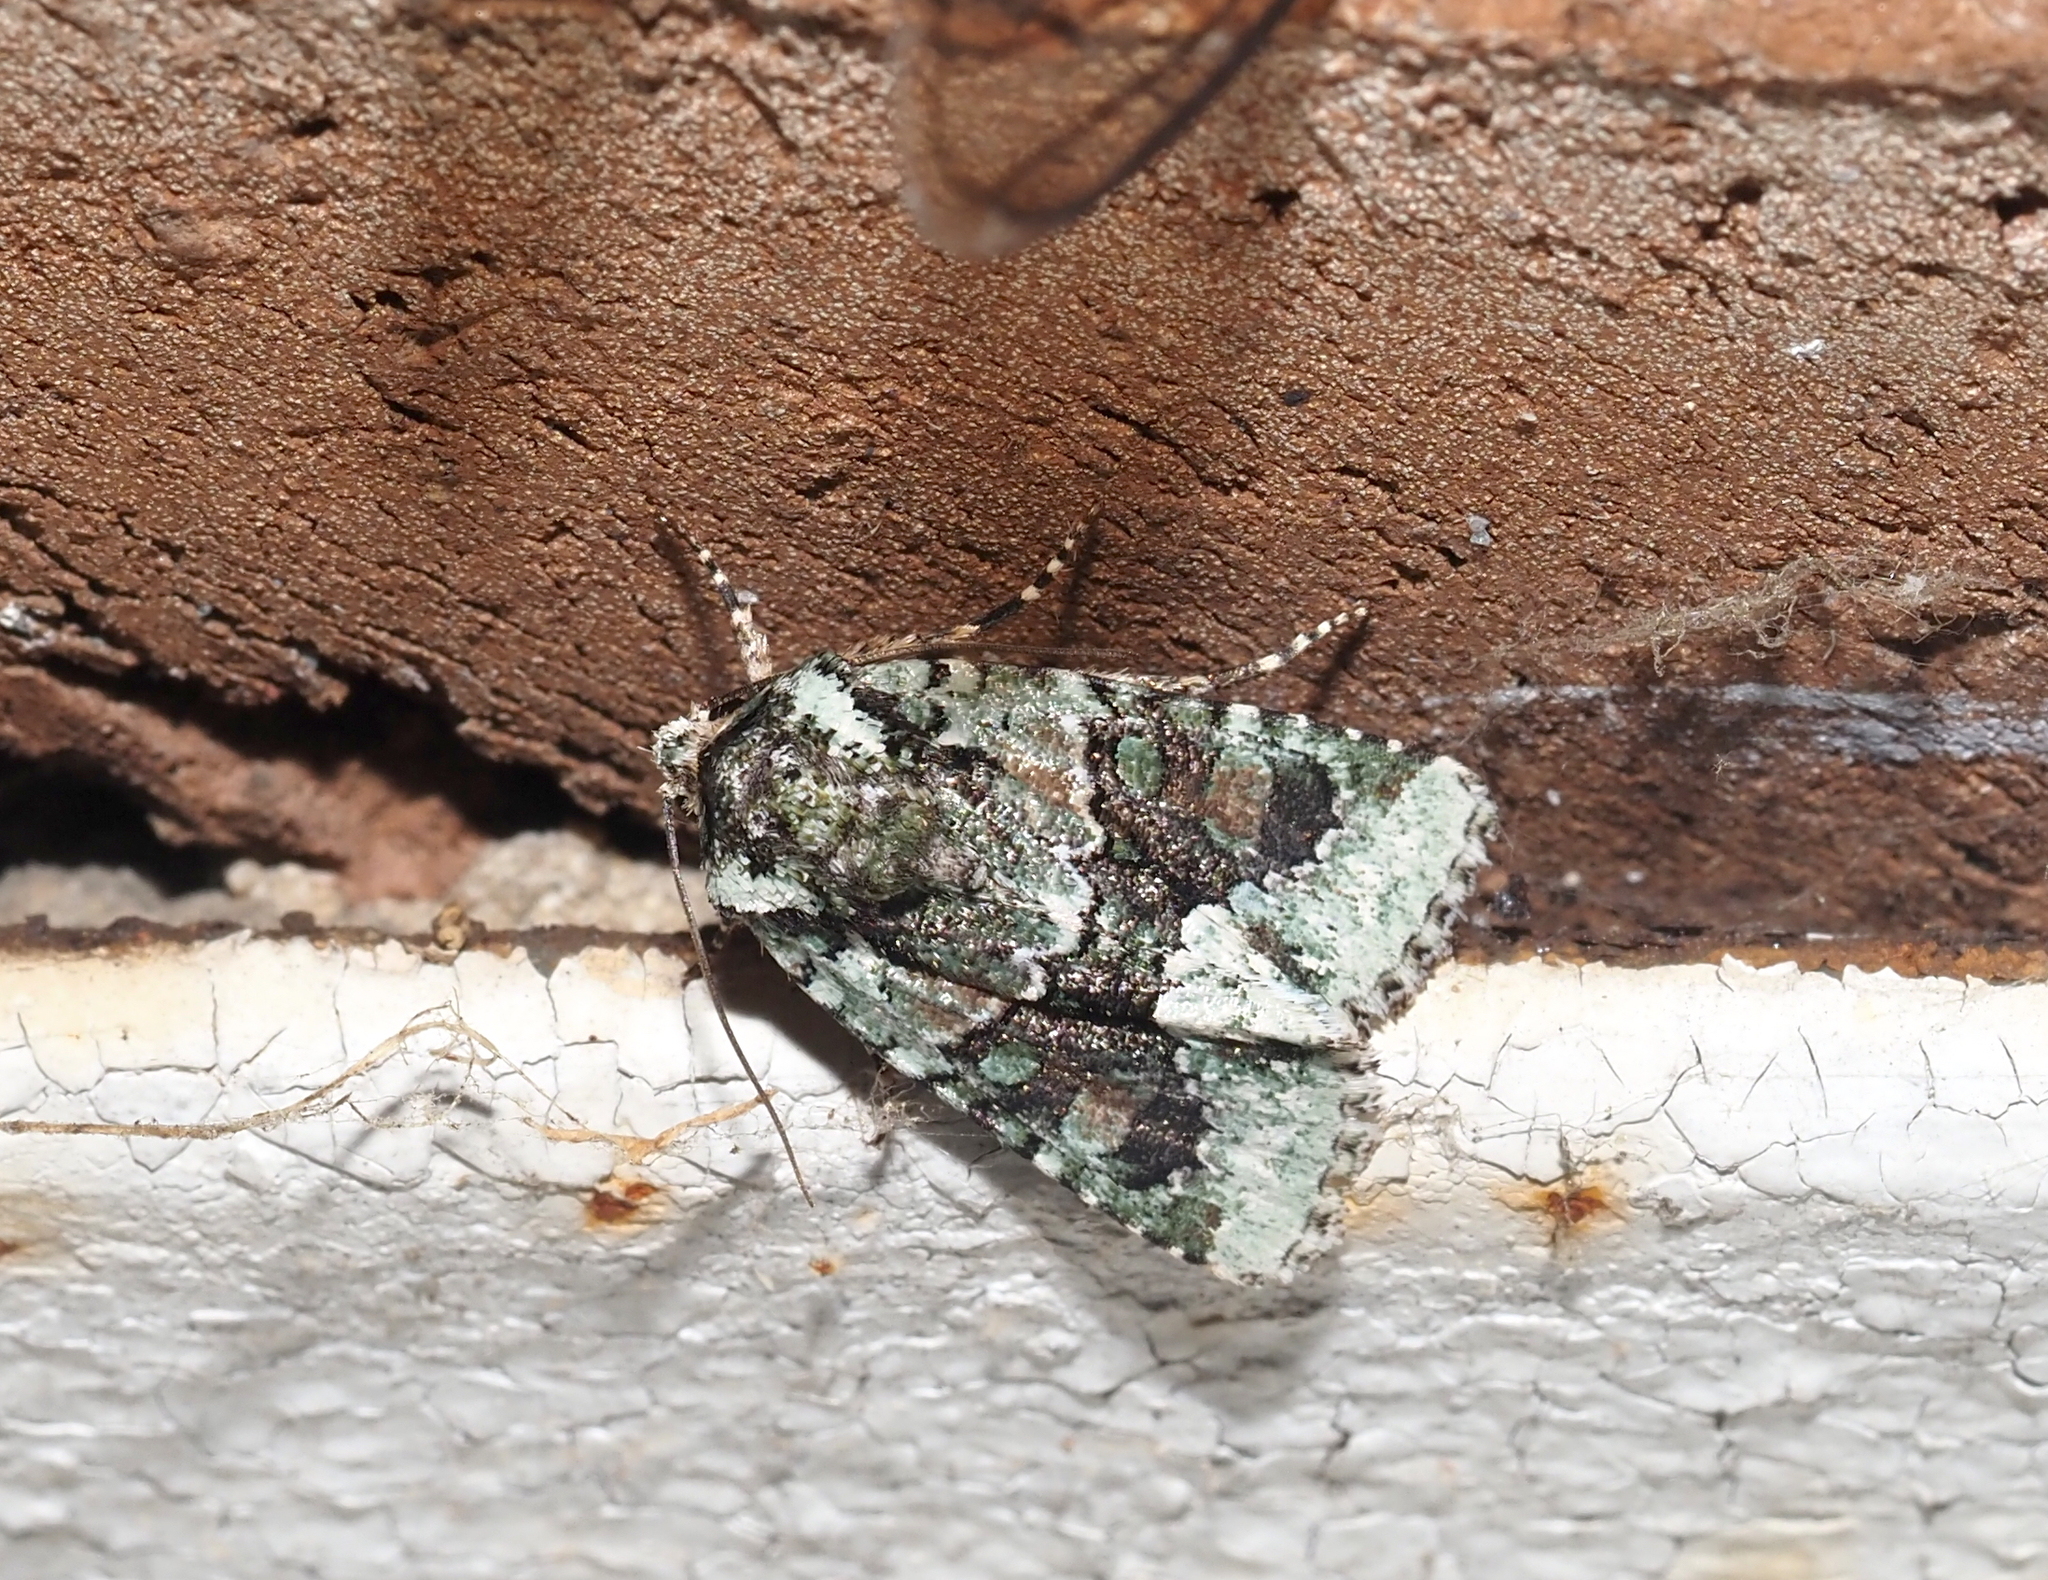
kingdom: Animalia
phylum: Arthropoda
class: Insecta
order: Lepidoptera
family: Noctuidae
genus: Lacinipolia
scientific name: Lacinipolia explicata
